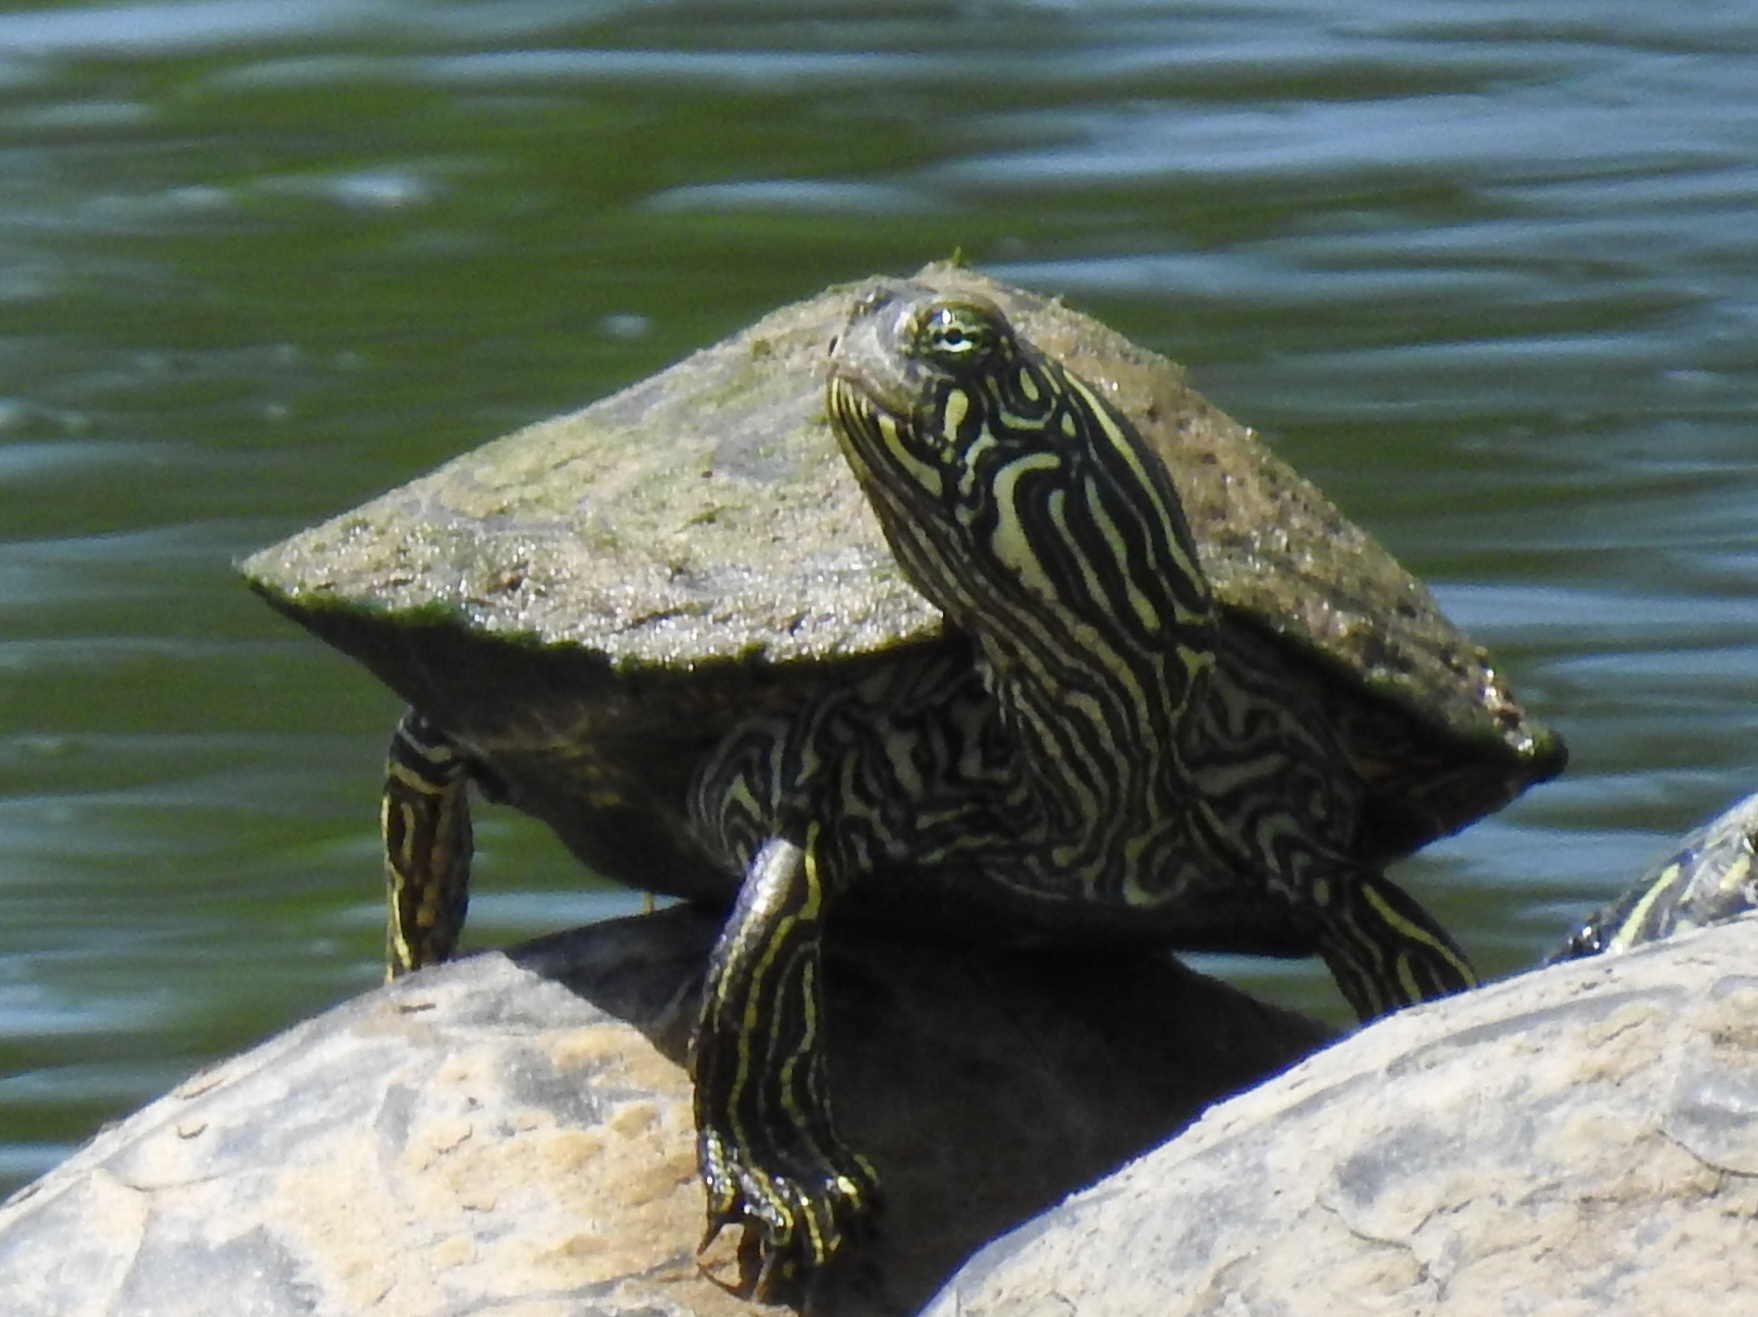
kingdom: Animalia
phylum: Chordata
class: Testudines
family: Emydidae
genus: Pseudemys
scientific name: Pseudemys texana
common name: Texas river cooter
